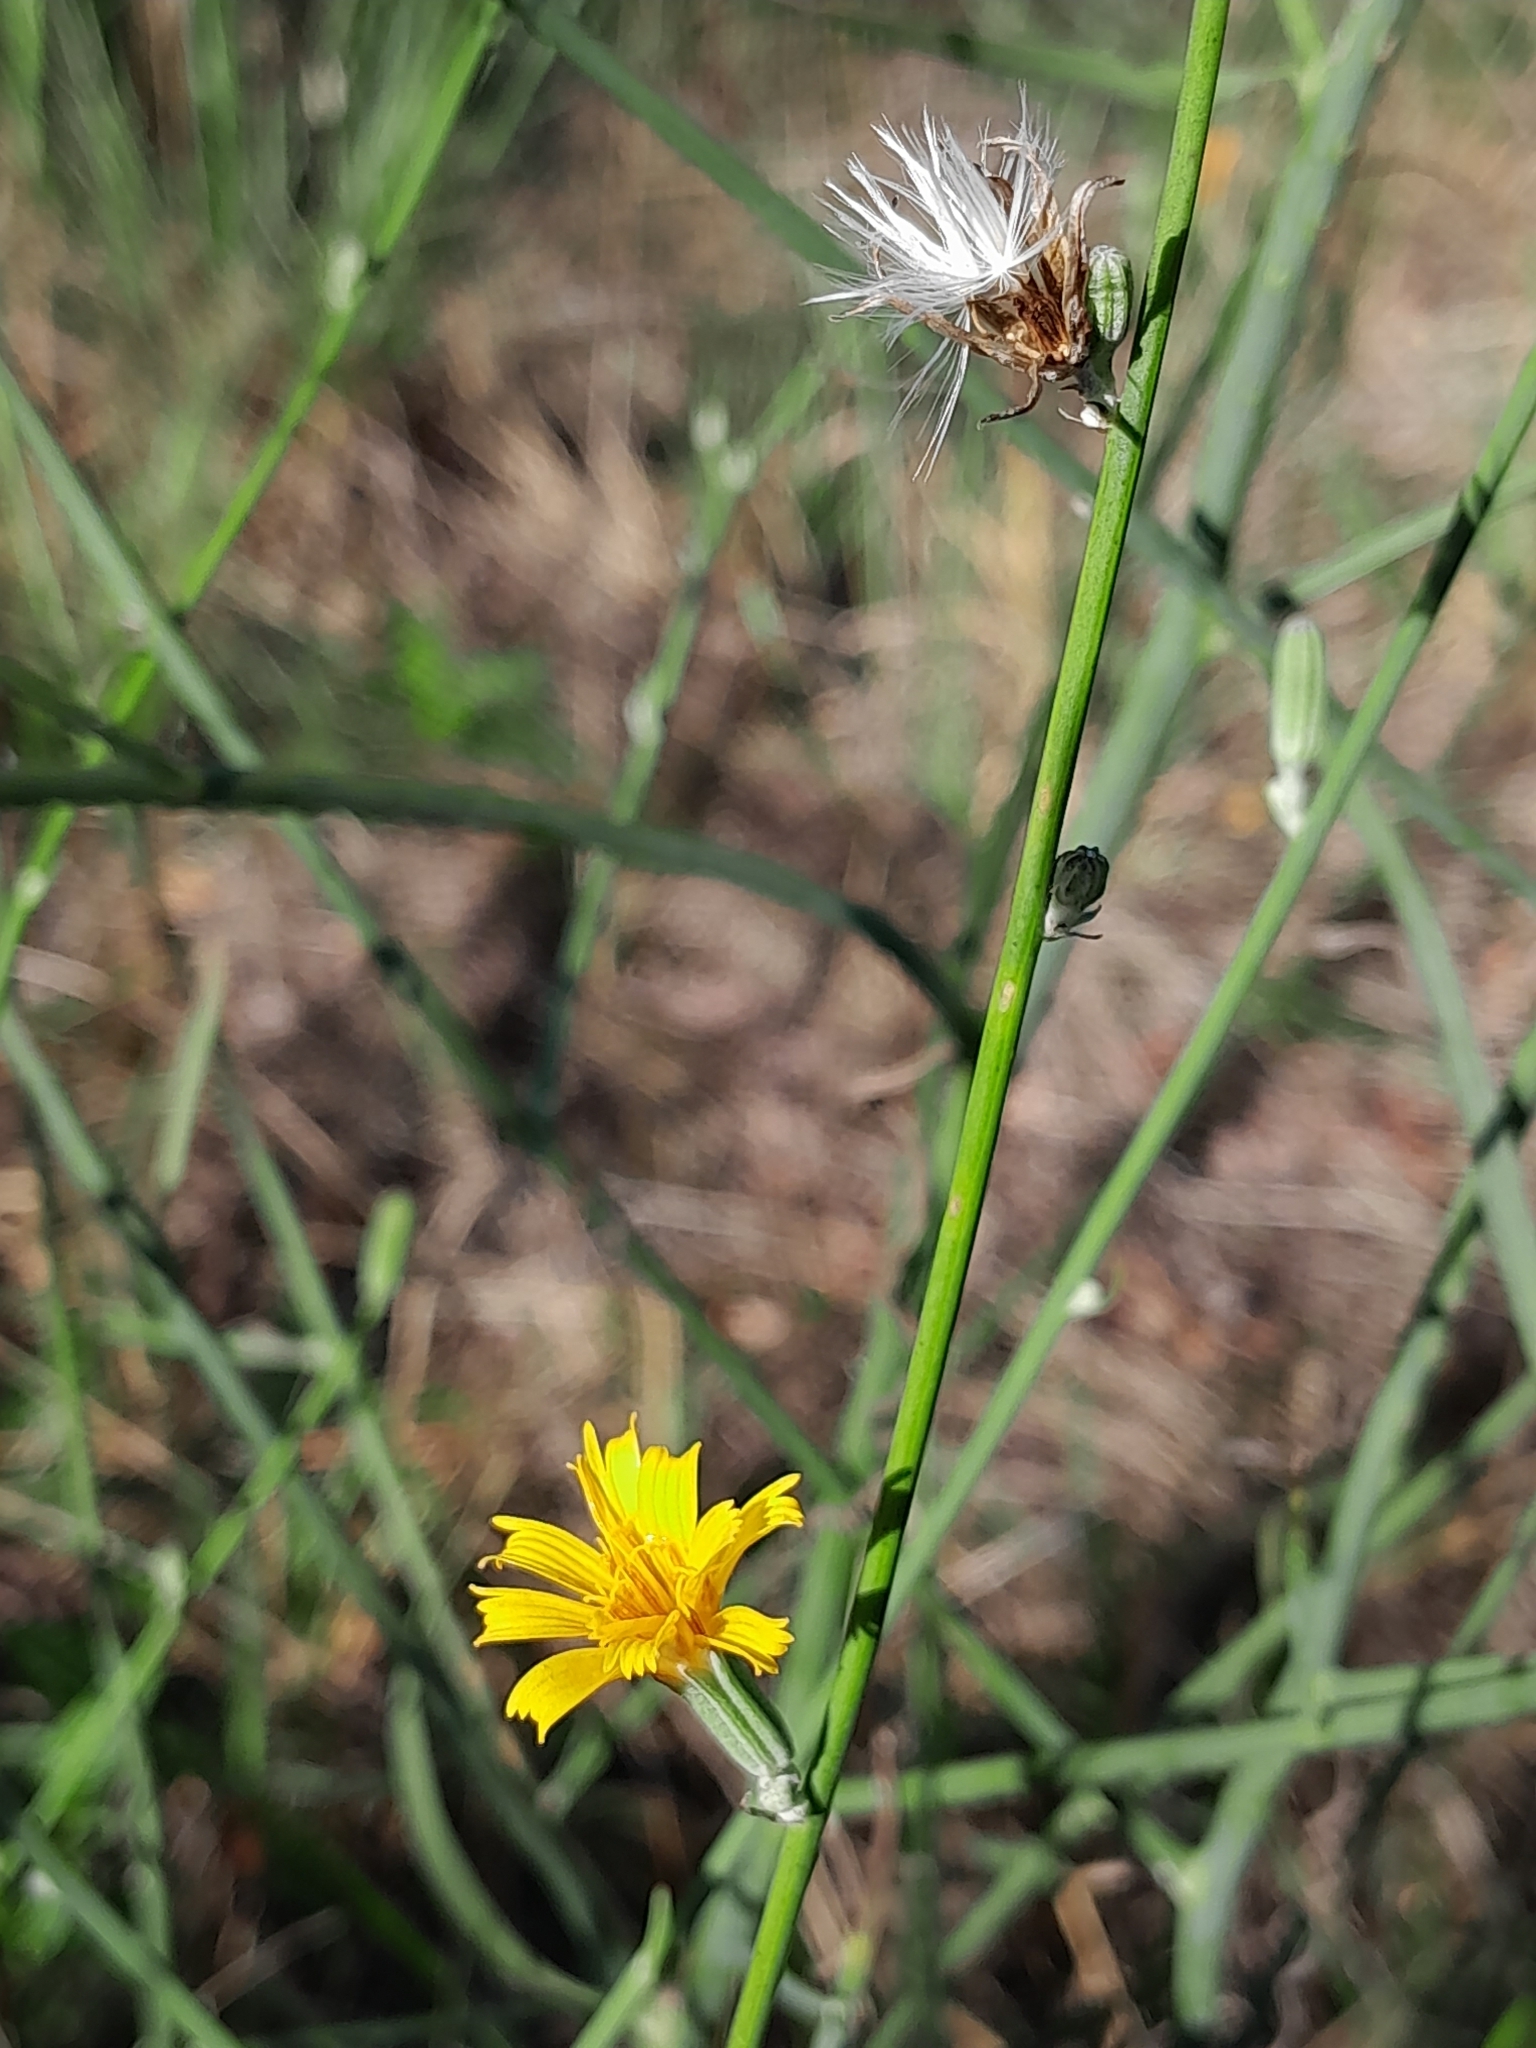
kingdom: Plantae
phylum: Tracheophyta
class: Magnoliopsida
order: Asterales
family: Asteraceae
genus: Chondrilla
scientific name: Chondrilla juncea
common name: Skeleton weed
